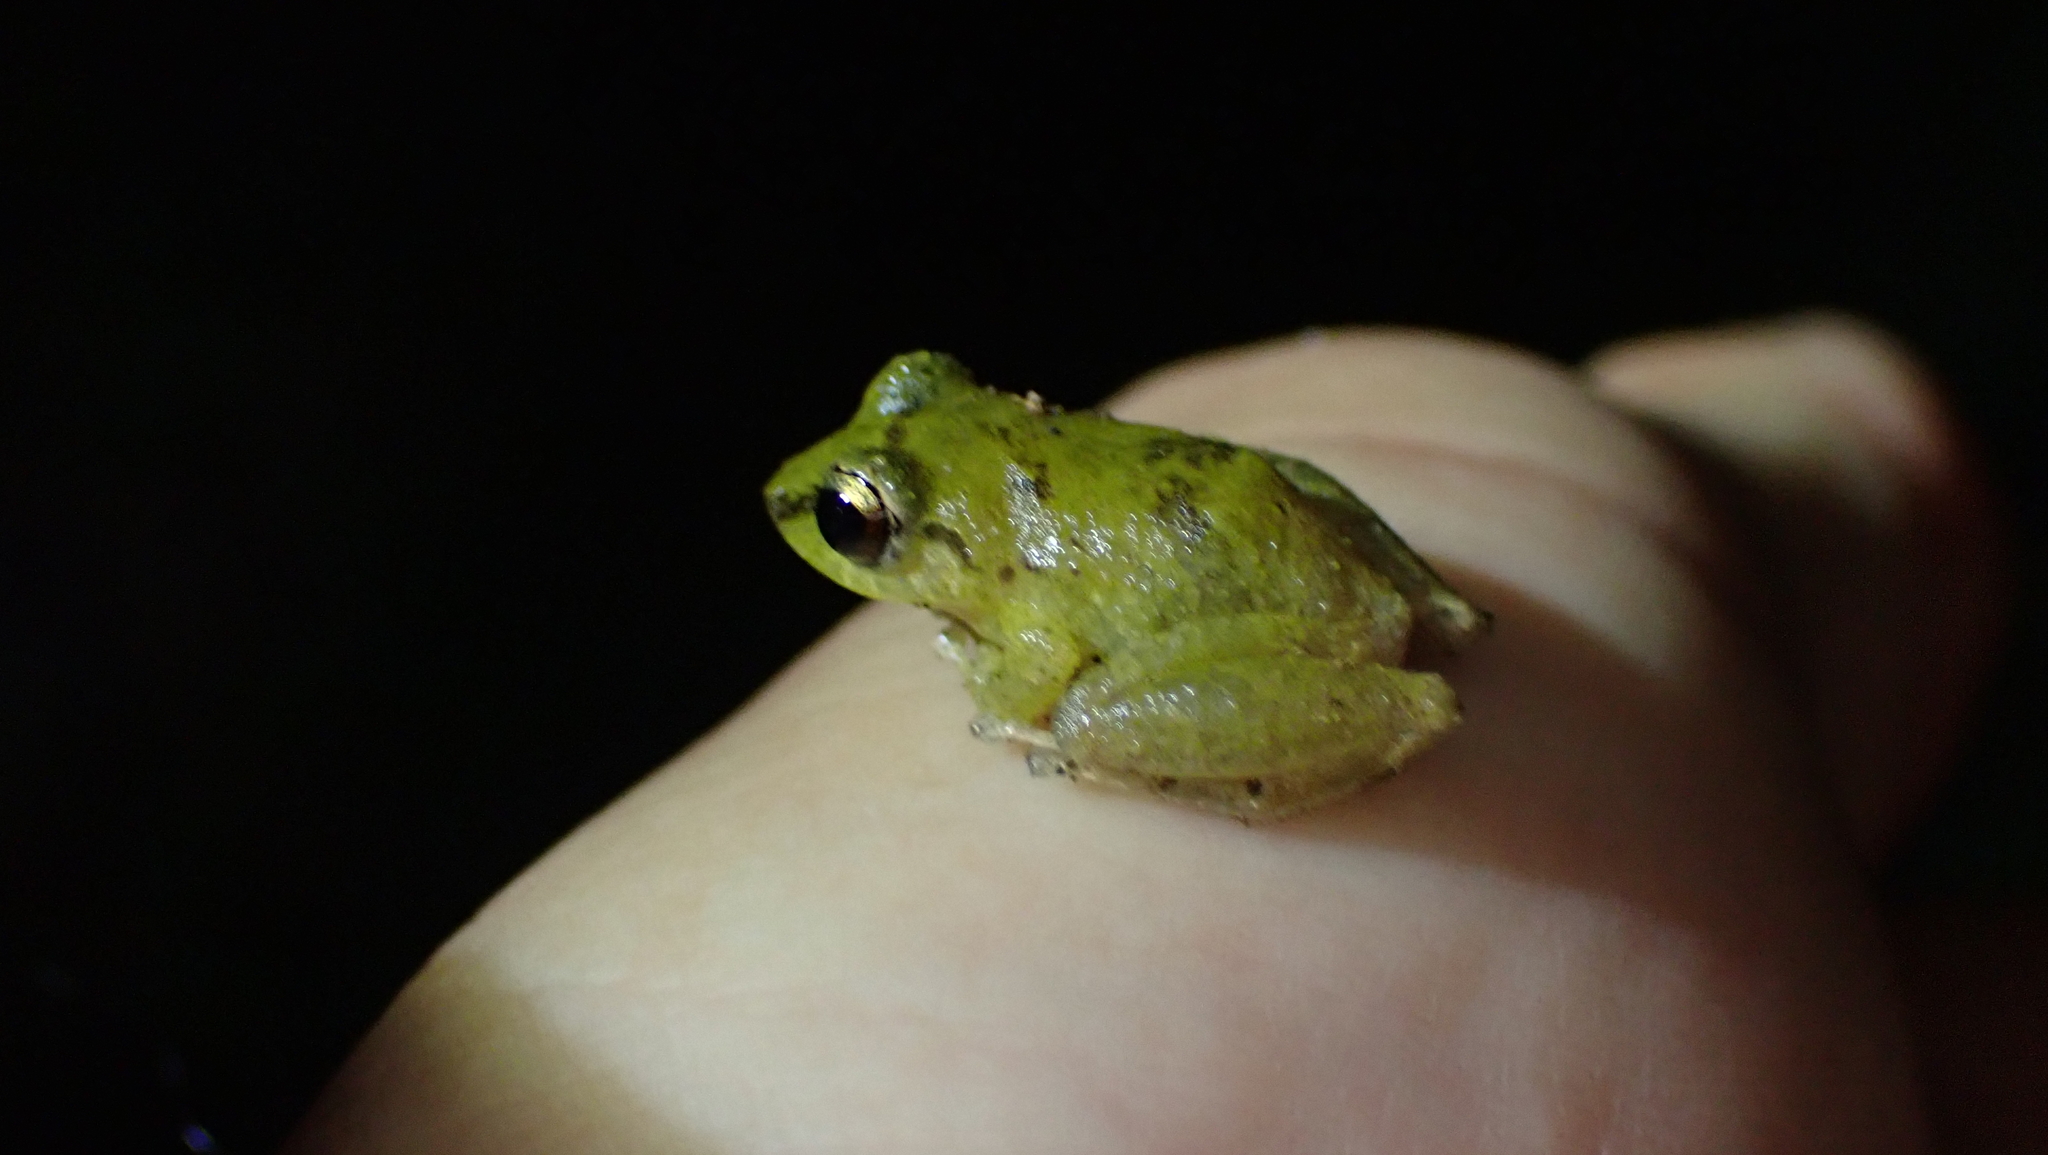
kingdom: Animalia
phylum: Chordata
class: Amphibia
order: Anura
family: Craugastoridae
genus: Pristimantis
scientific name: Pristimantis ridens
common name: Rio san juan robber frog
